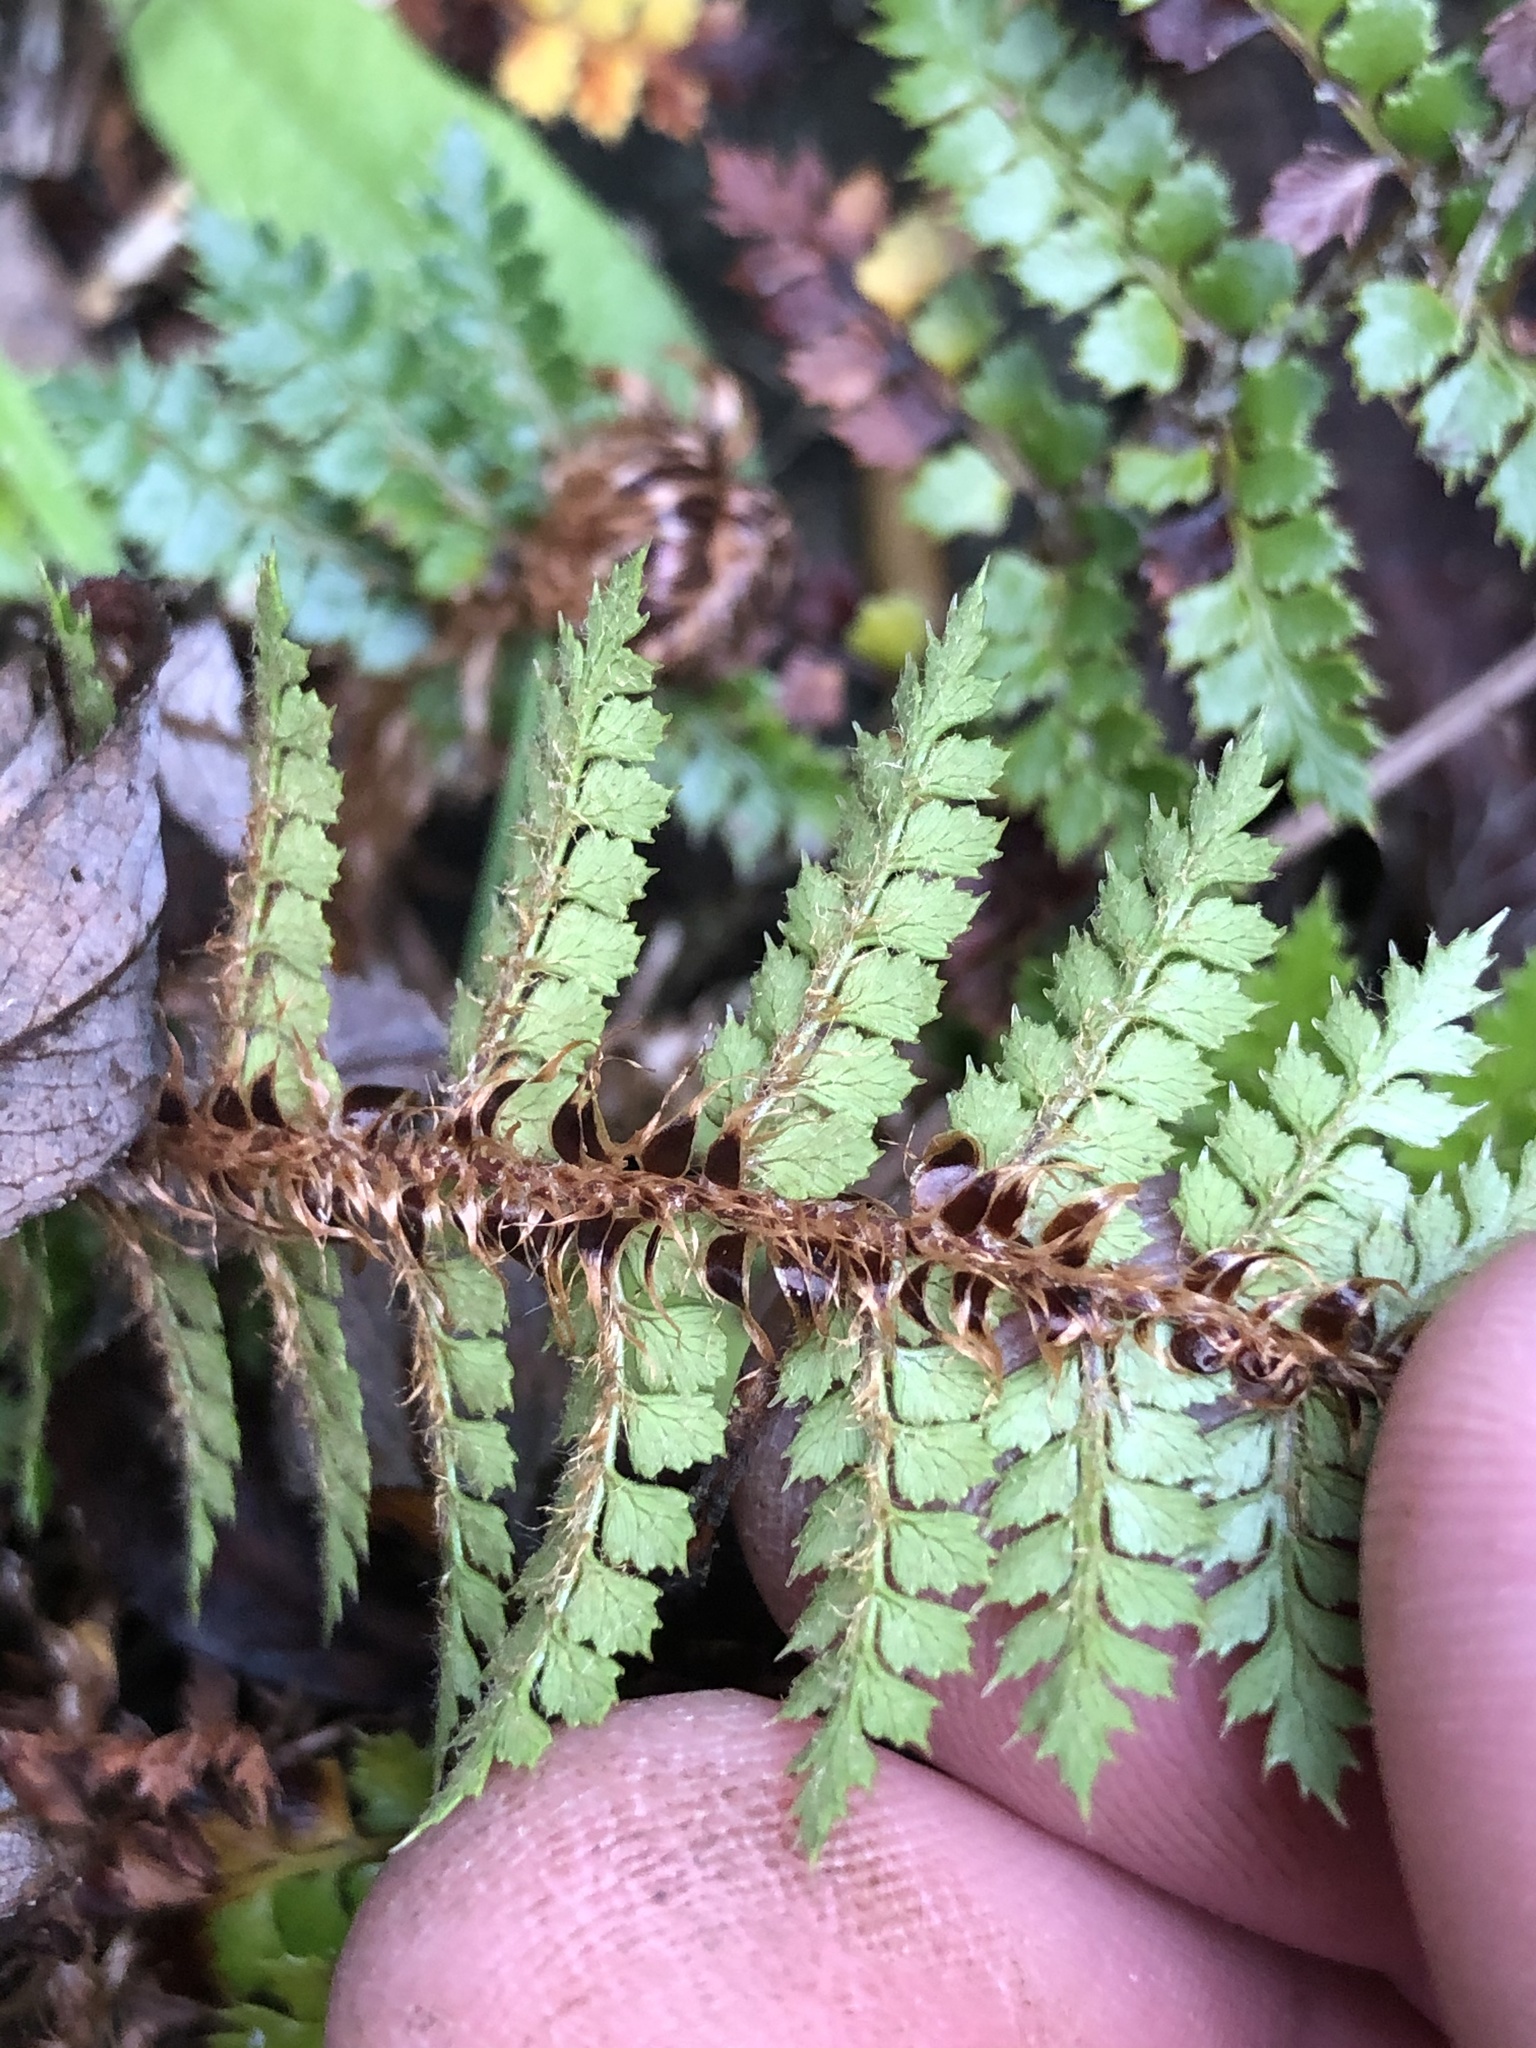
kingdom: Plantae
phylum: Tracheophyta
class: Polypodiopsida
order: Polypodiales
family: Dryopteridaceae
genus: Polystichum
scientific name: Polystichum vestitum
